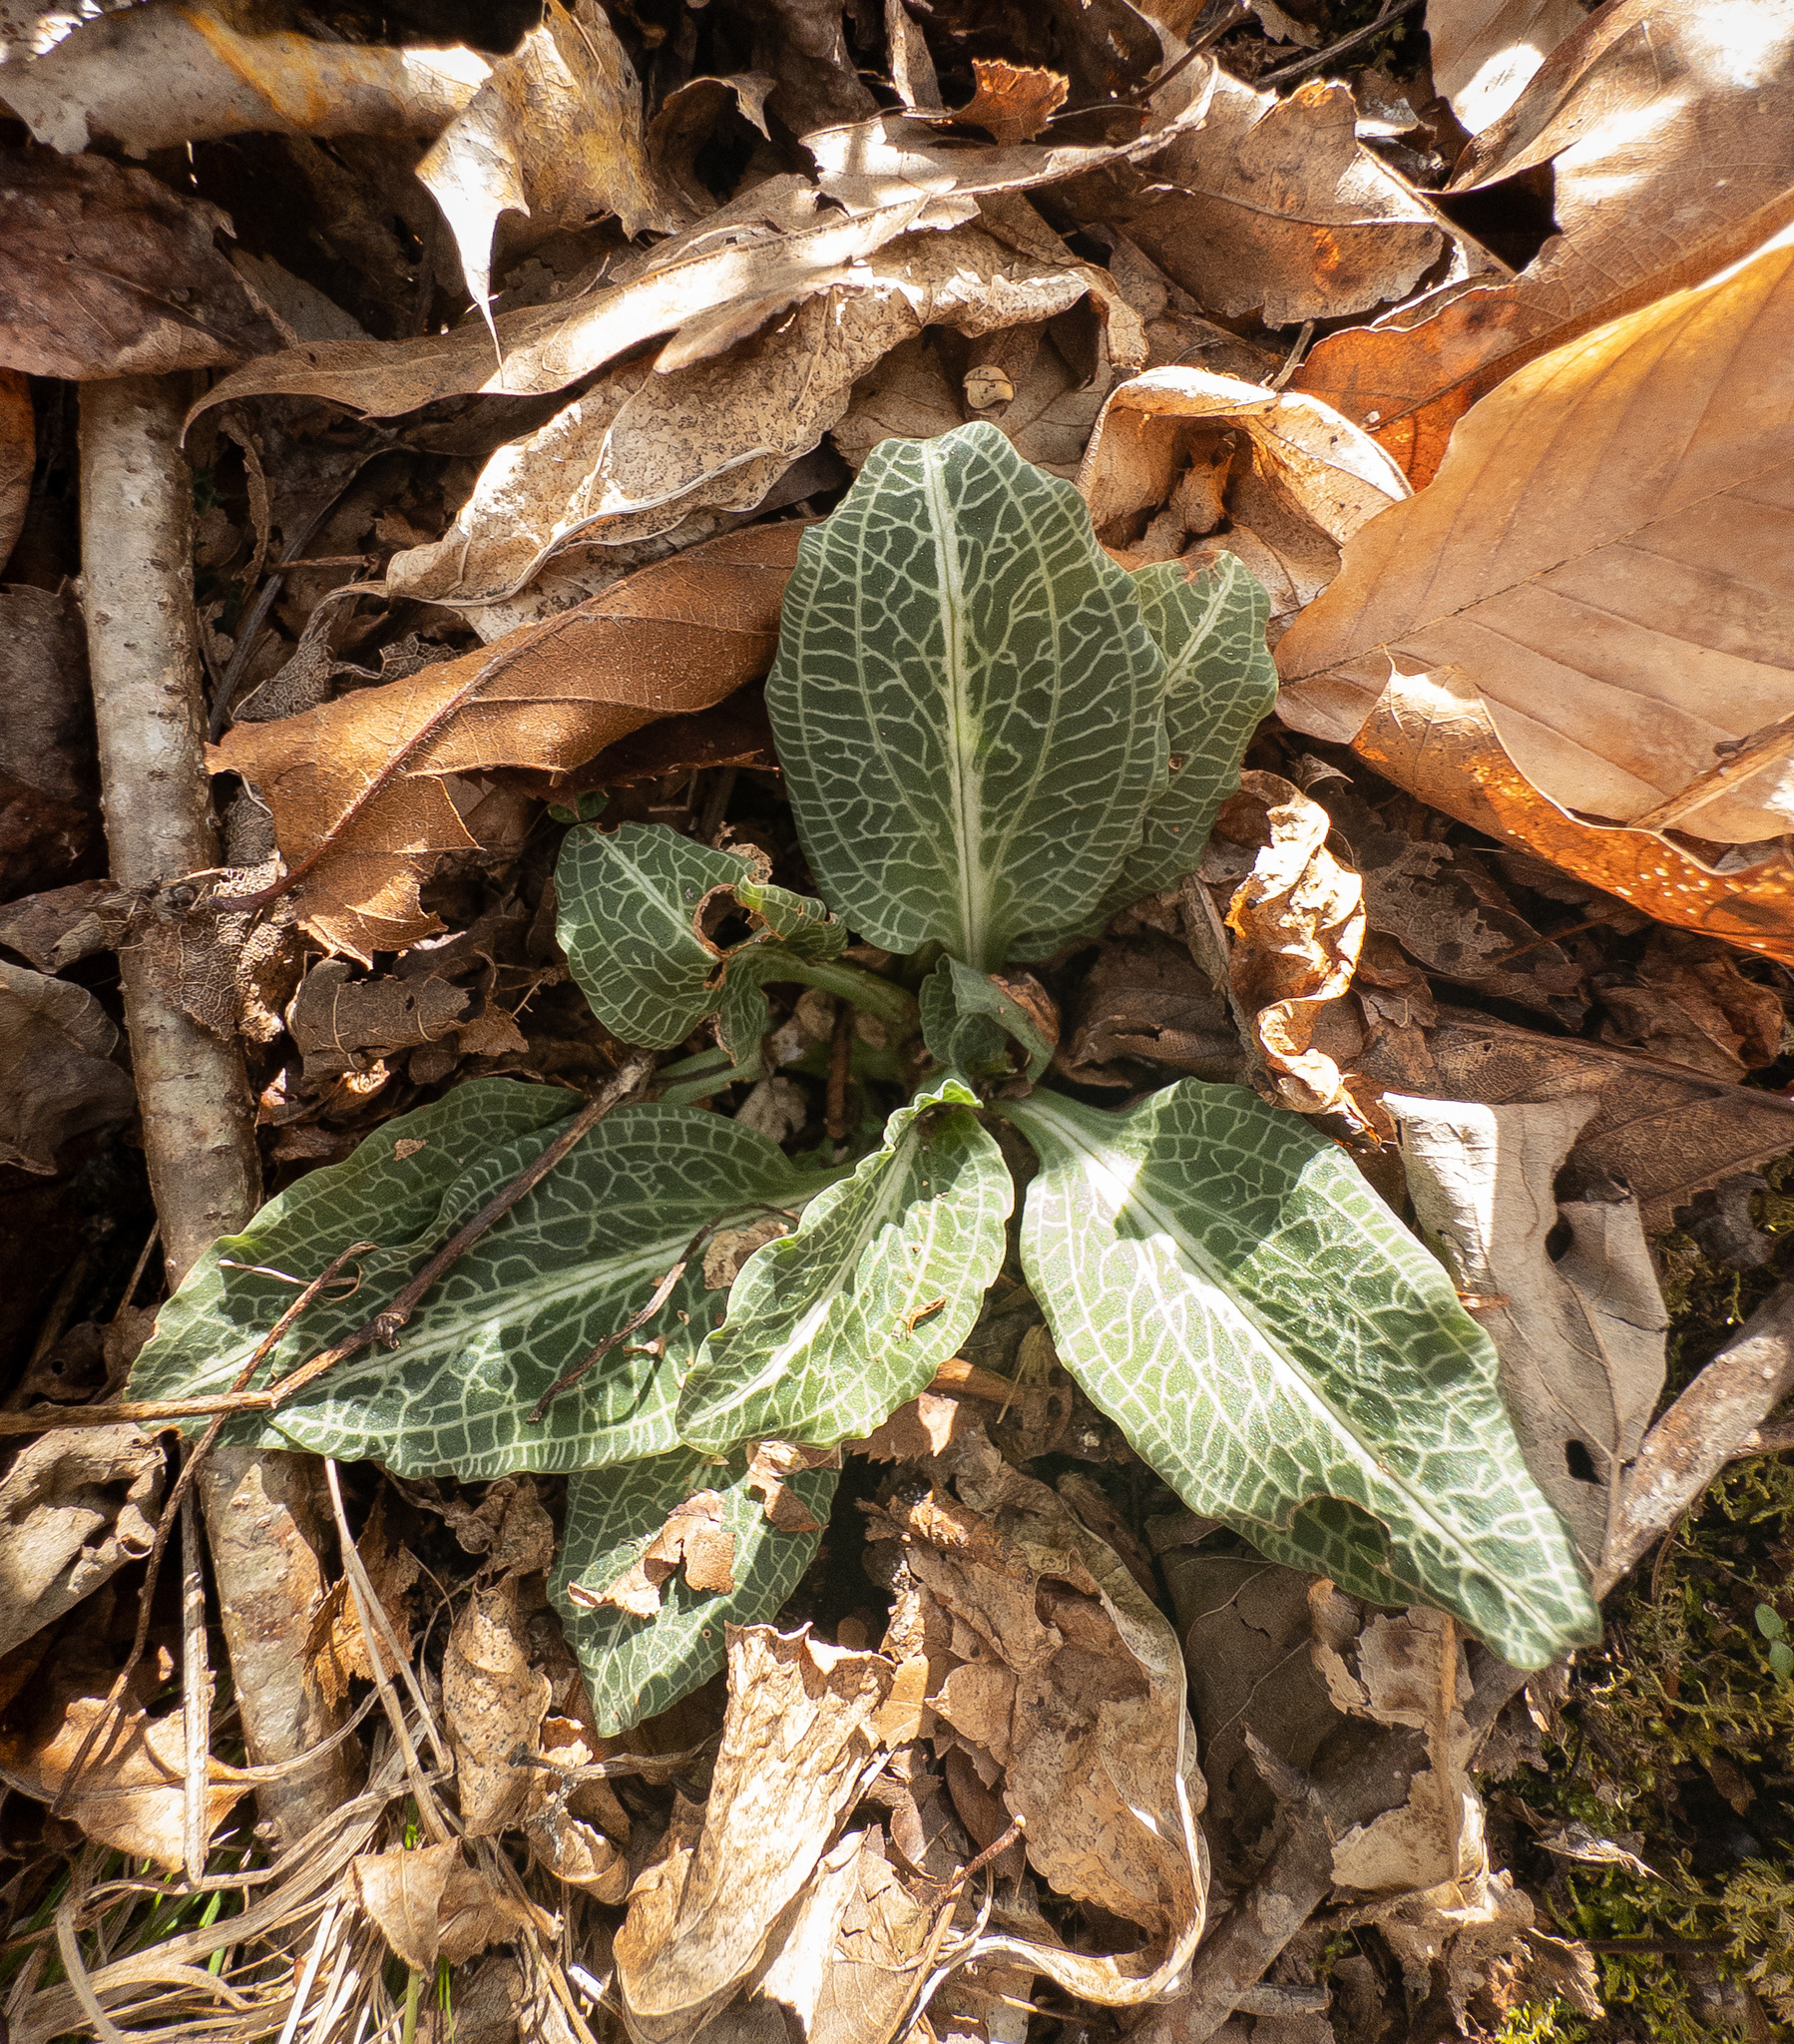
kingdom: Plantae
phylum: Tracheophyta
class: Liliopsida
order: Asparagales
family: Orchidaceae
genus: Goodyera
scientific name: Goodyera pubescens
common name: Downy rattlesnake-plantain
